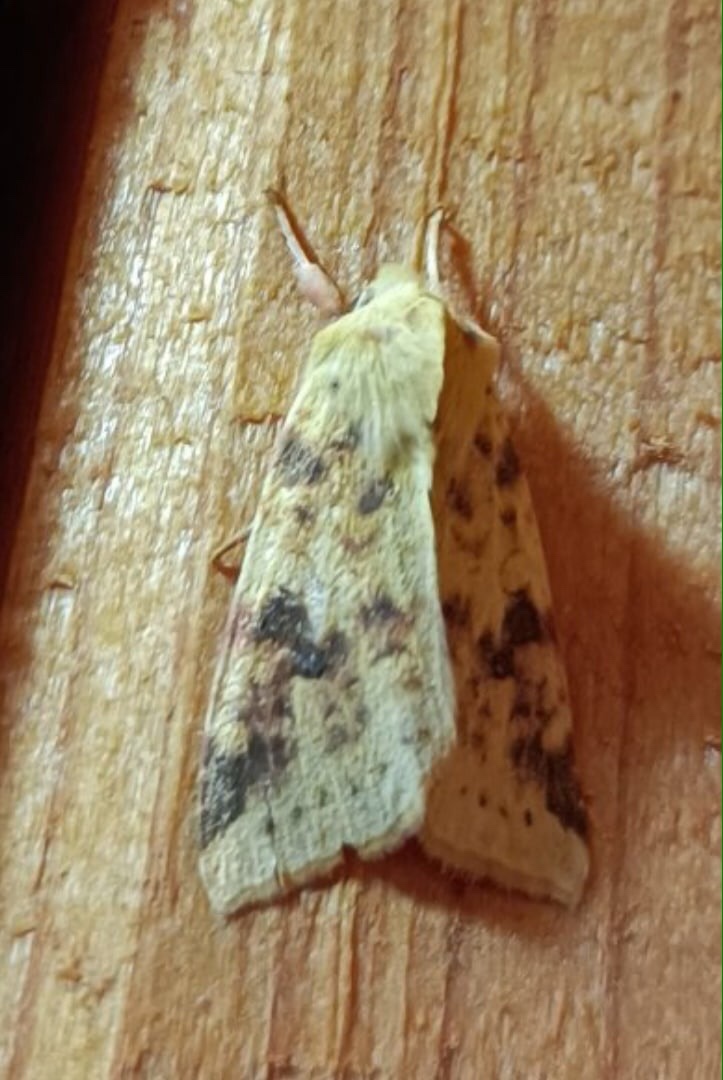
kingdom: Animalia
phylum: Arthropoda
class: Insecta
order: Lepidoptera
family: Noctuidae
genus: Xanthia
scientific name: Xanthia icteritia
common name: The sallow
